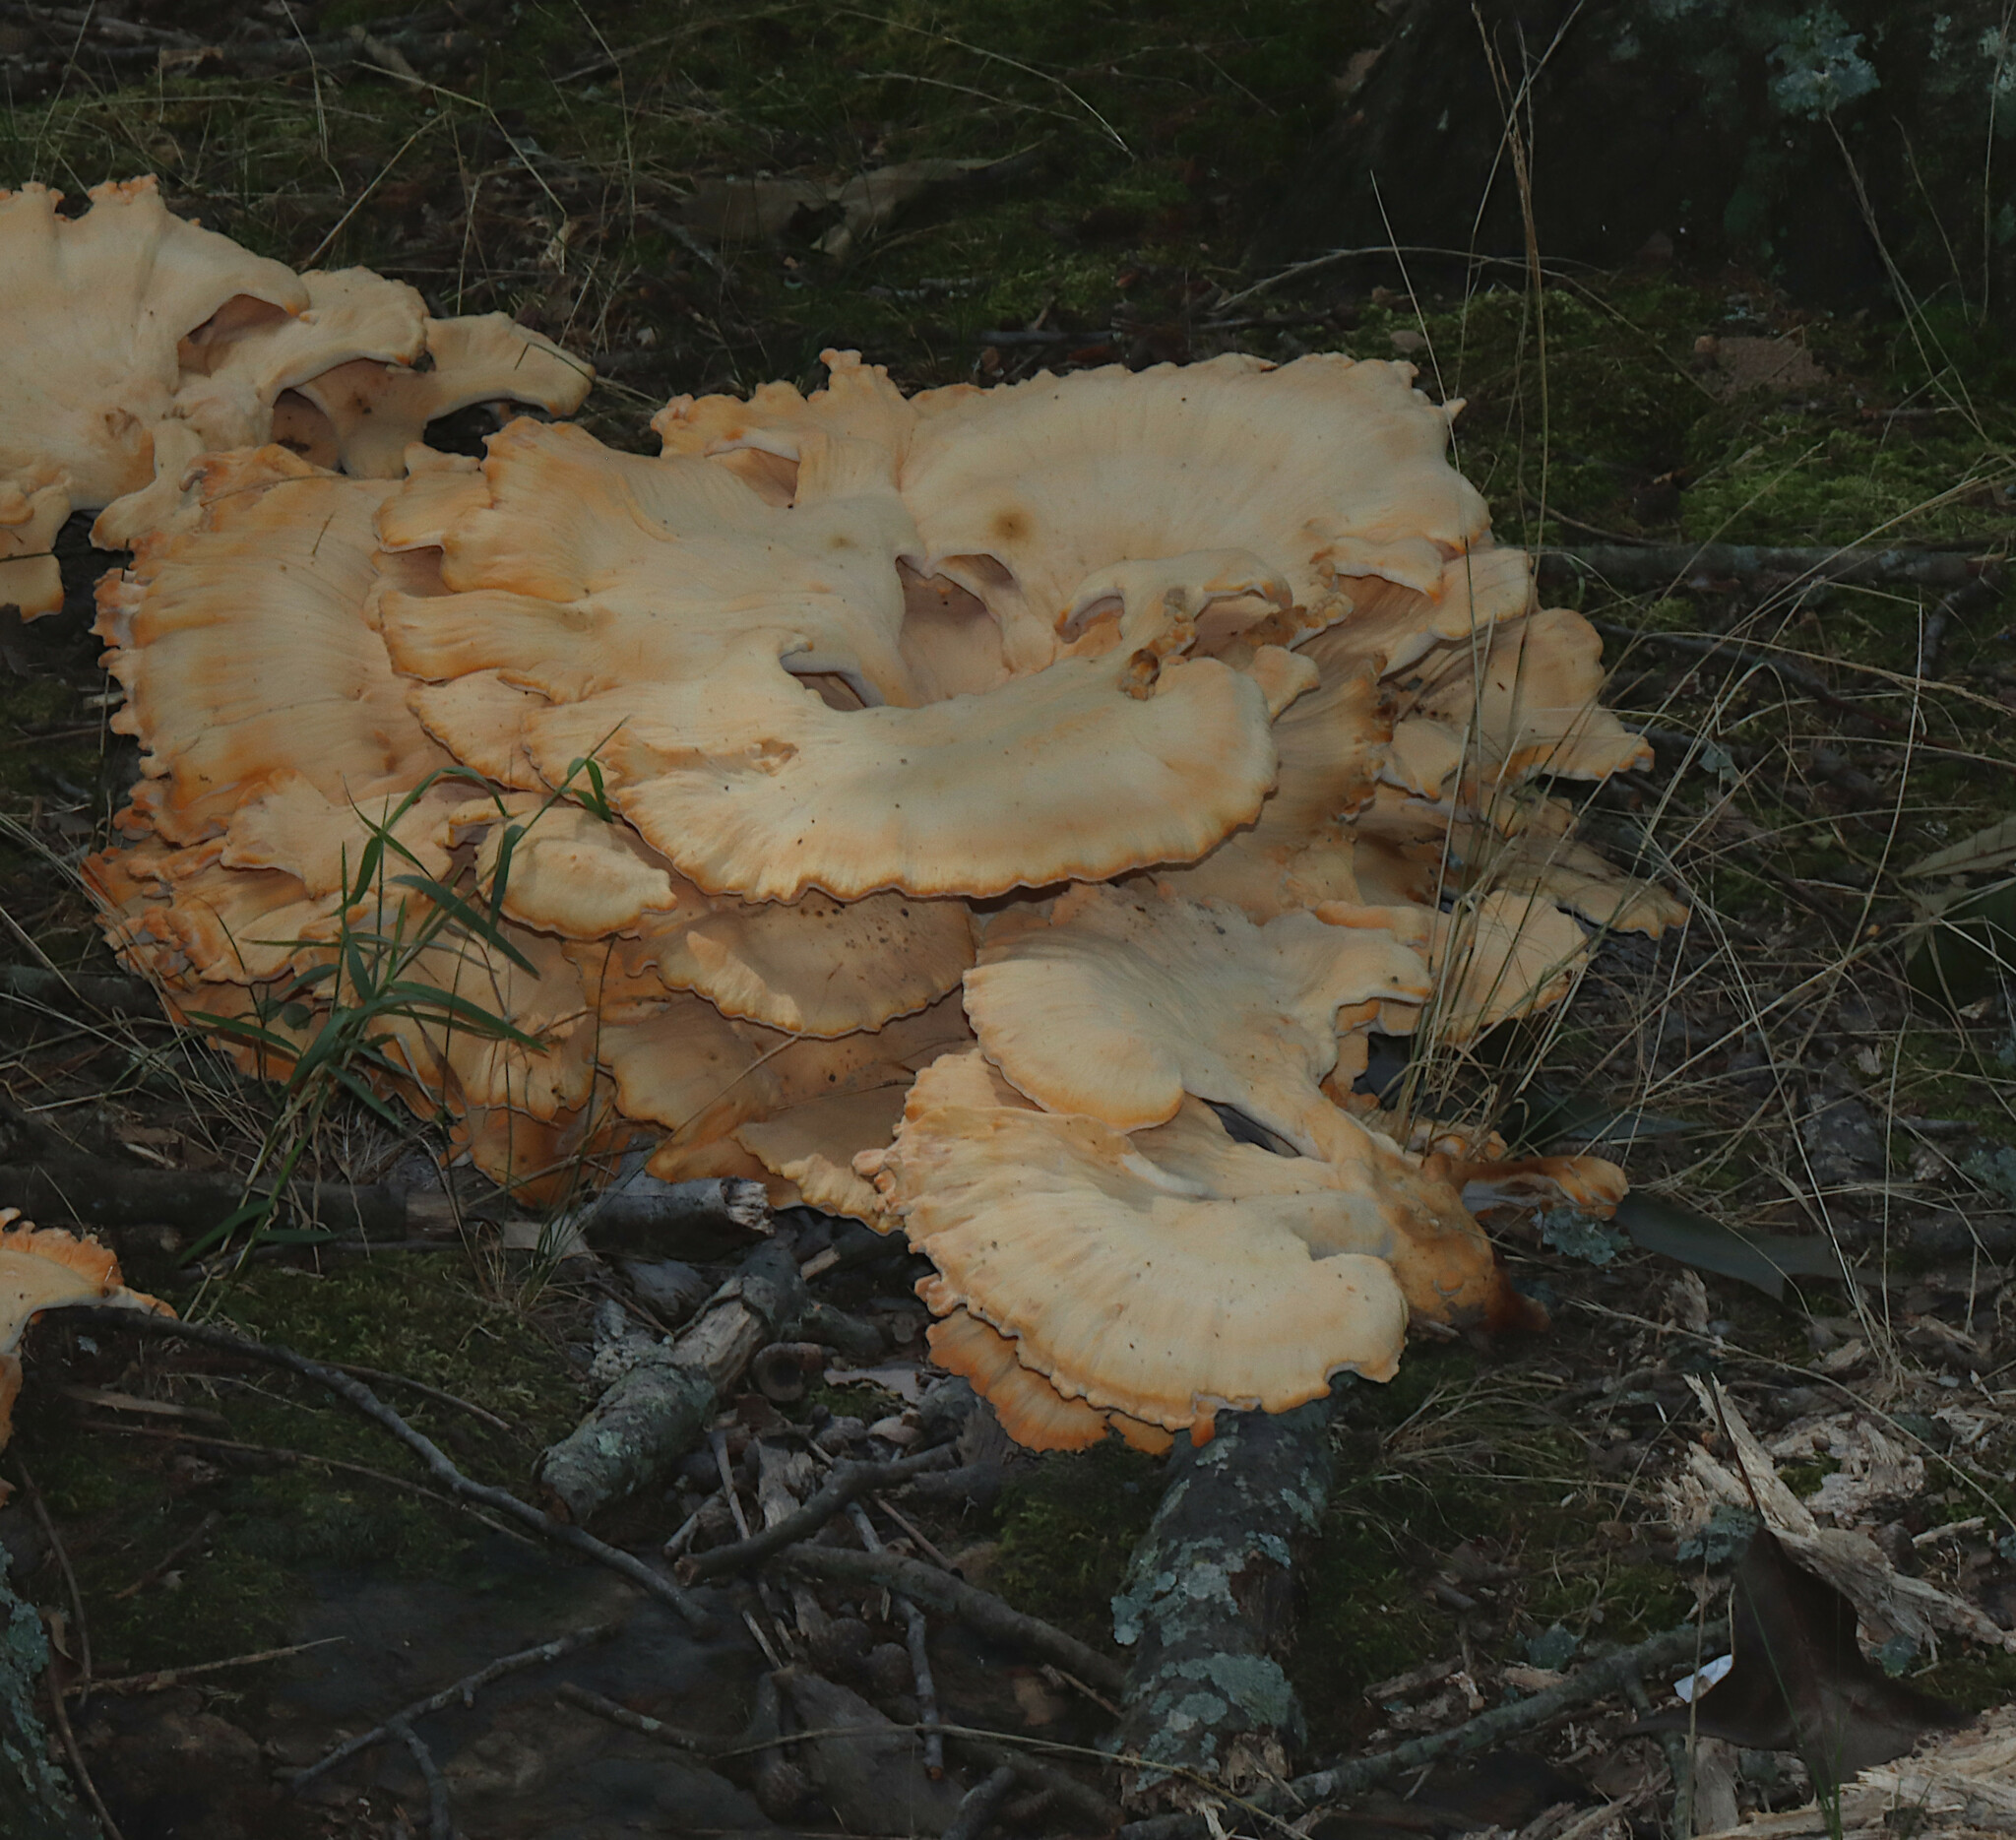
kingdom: Fungi
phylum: Basidiomycota
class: Agaricomycetes
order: Polyporales
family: Laetiporaceae
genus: Laetiporus
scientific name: Laetiporus sulphureus
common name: Chicken of the woods
